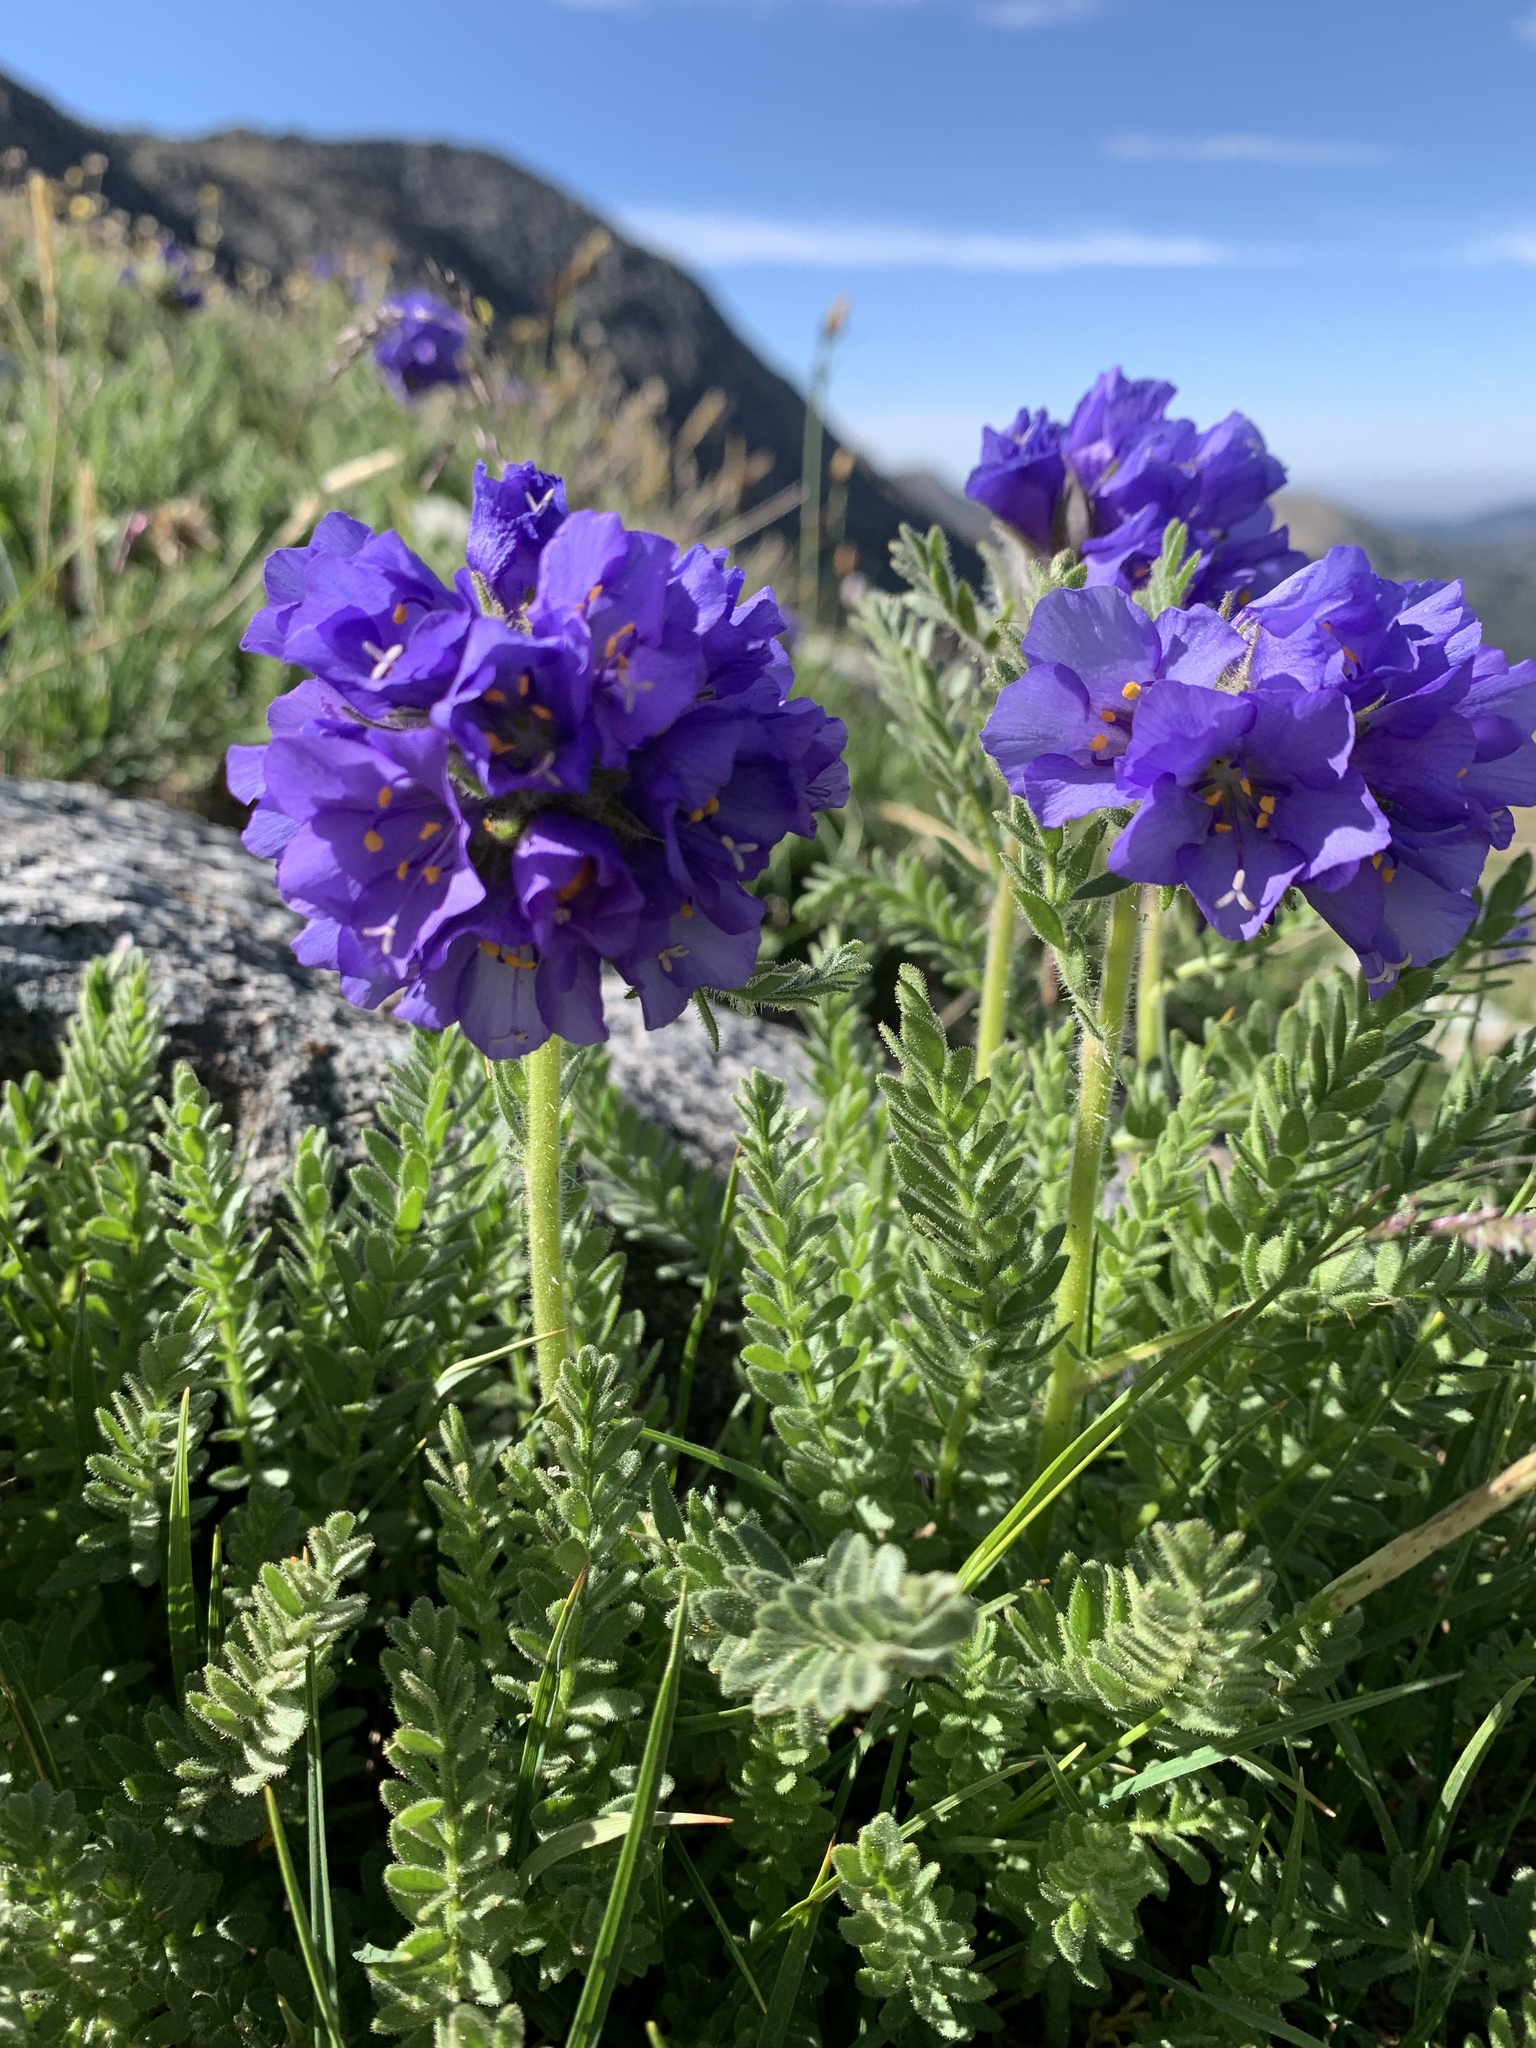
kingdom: Plantae
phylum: Tracheophyta
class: Magnoliopsida
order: Ericales
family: Polemoniaceae
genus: Polemonium
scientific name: Polemonium viscosum
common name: Skunk jacob's-ladder
